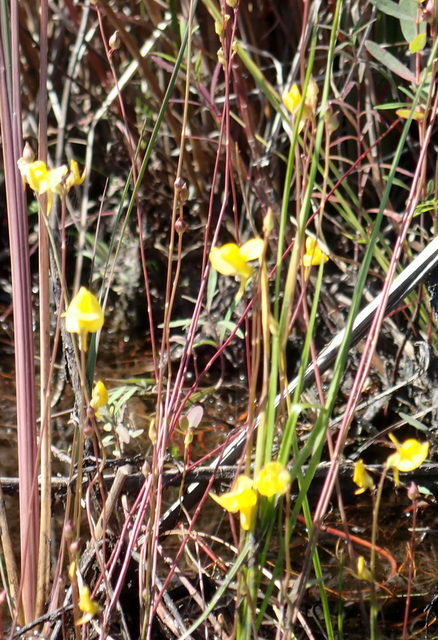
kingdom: Plantae
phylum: Tracheophyta
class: Magnoliopsida
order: Lamiales
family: Lentibulariaceae
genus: Utricularia
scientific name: Utricularia juncea
